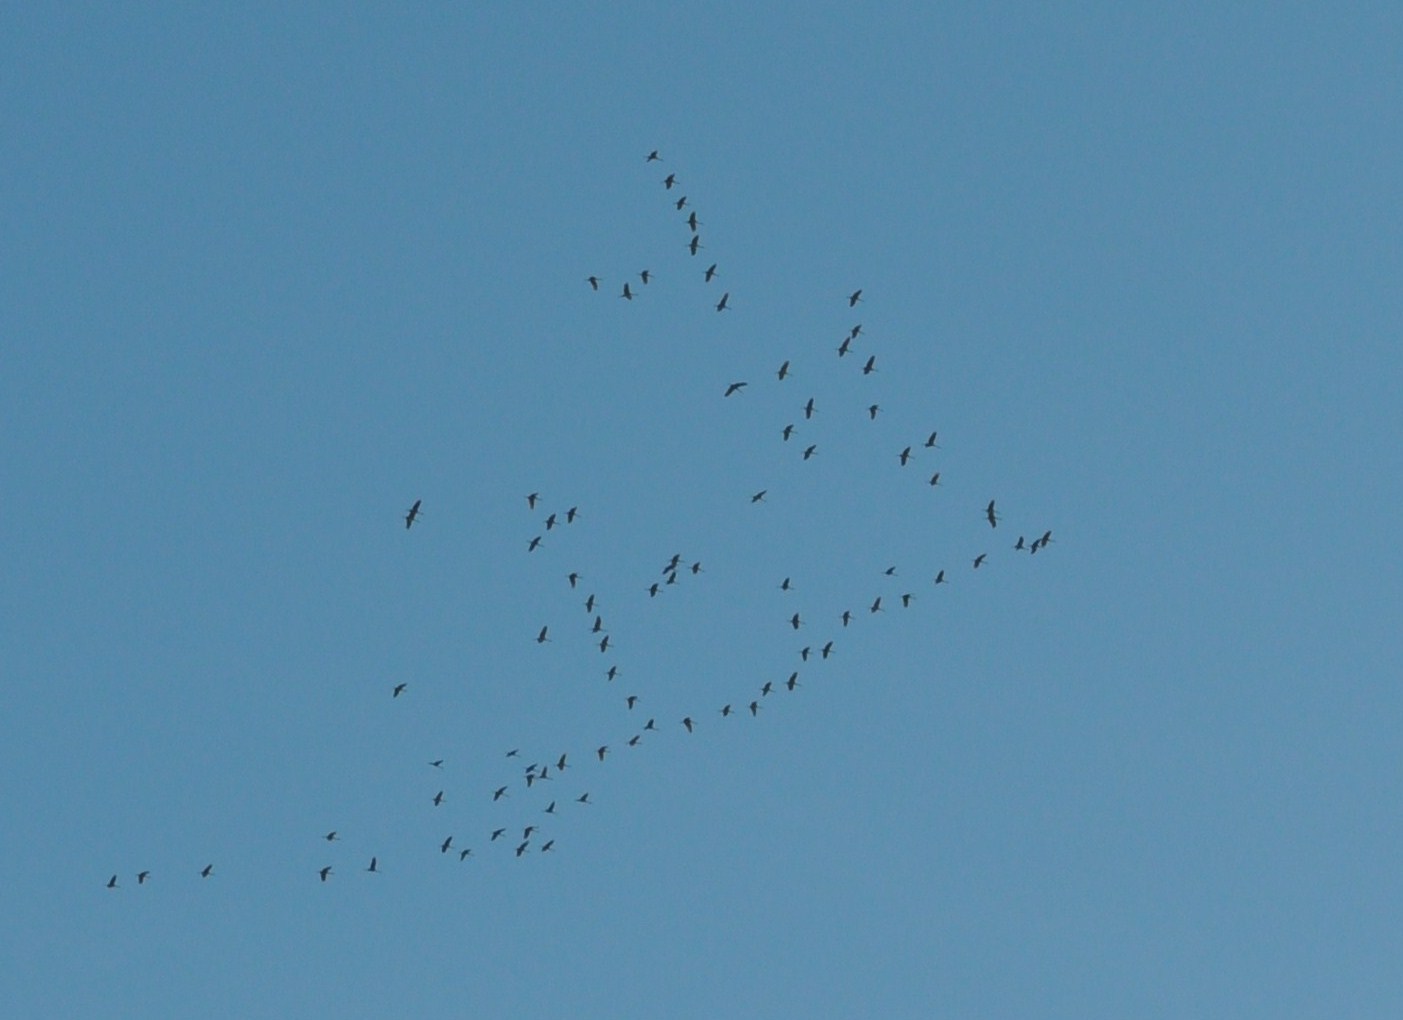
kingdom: Animalia
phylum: Chordata
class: Aves
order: Gruiformes
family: Gruidae
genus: Grus
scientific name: Grus canadensis
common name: Sandhill crane
